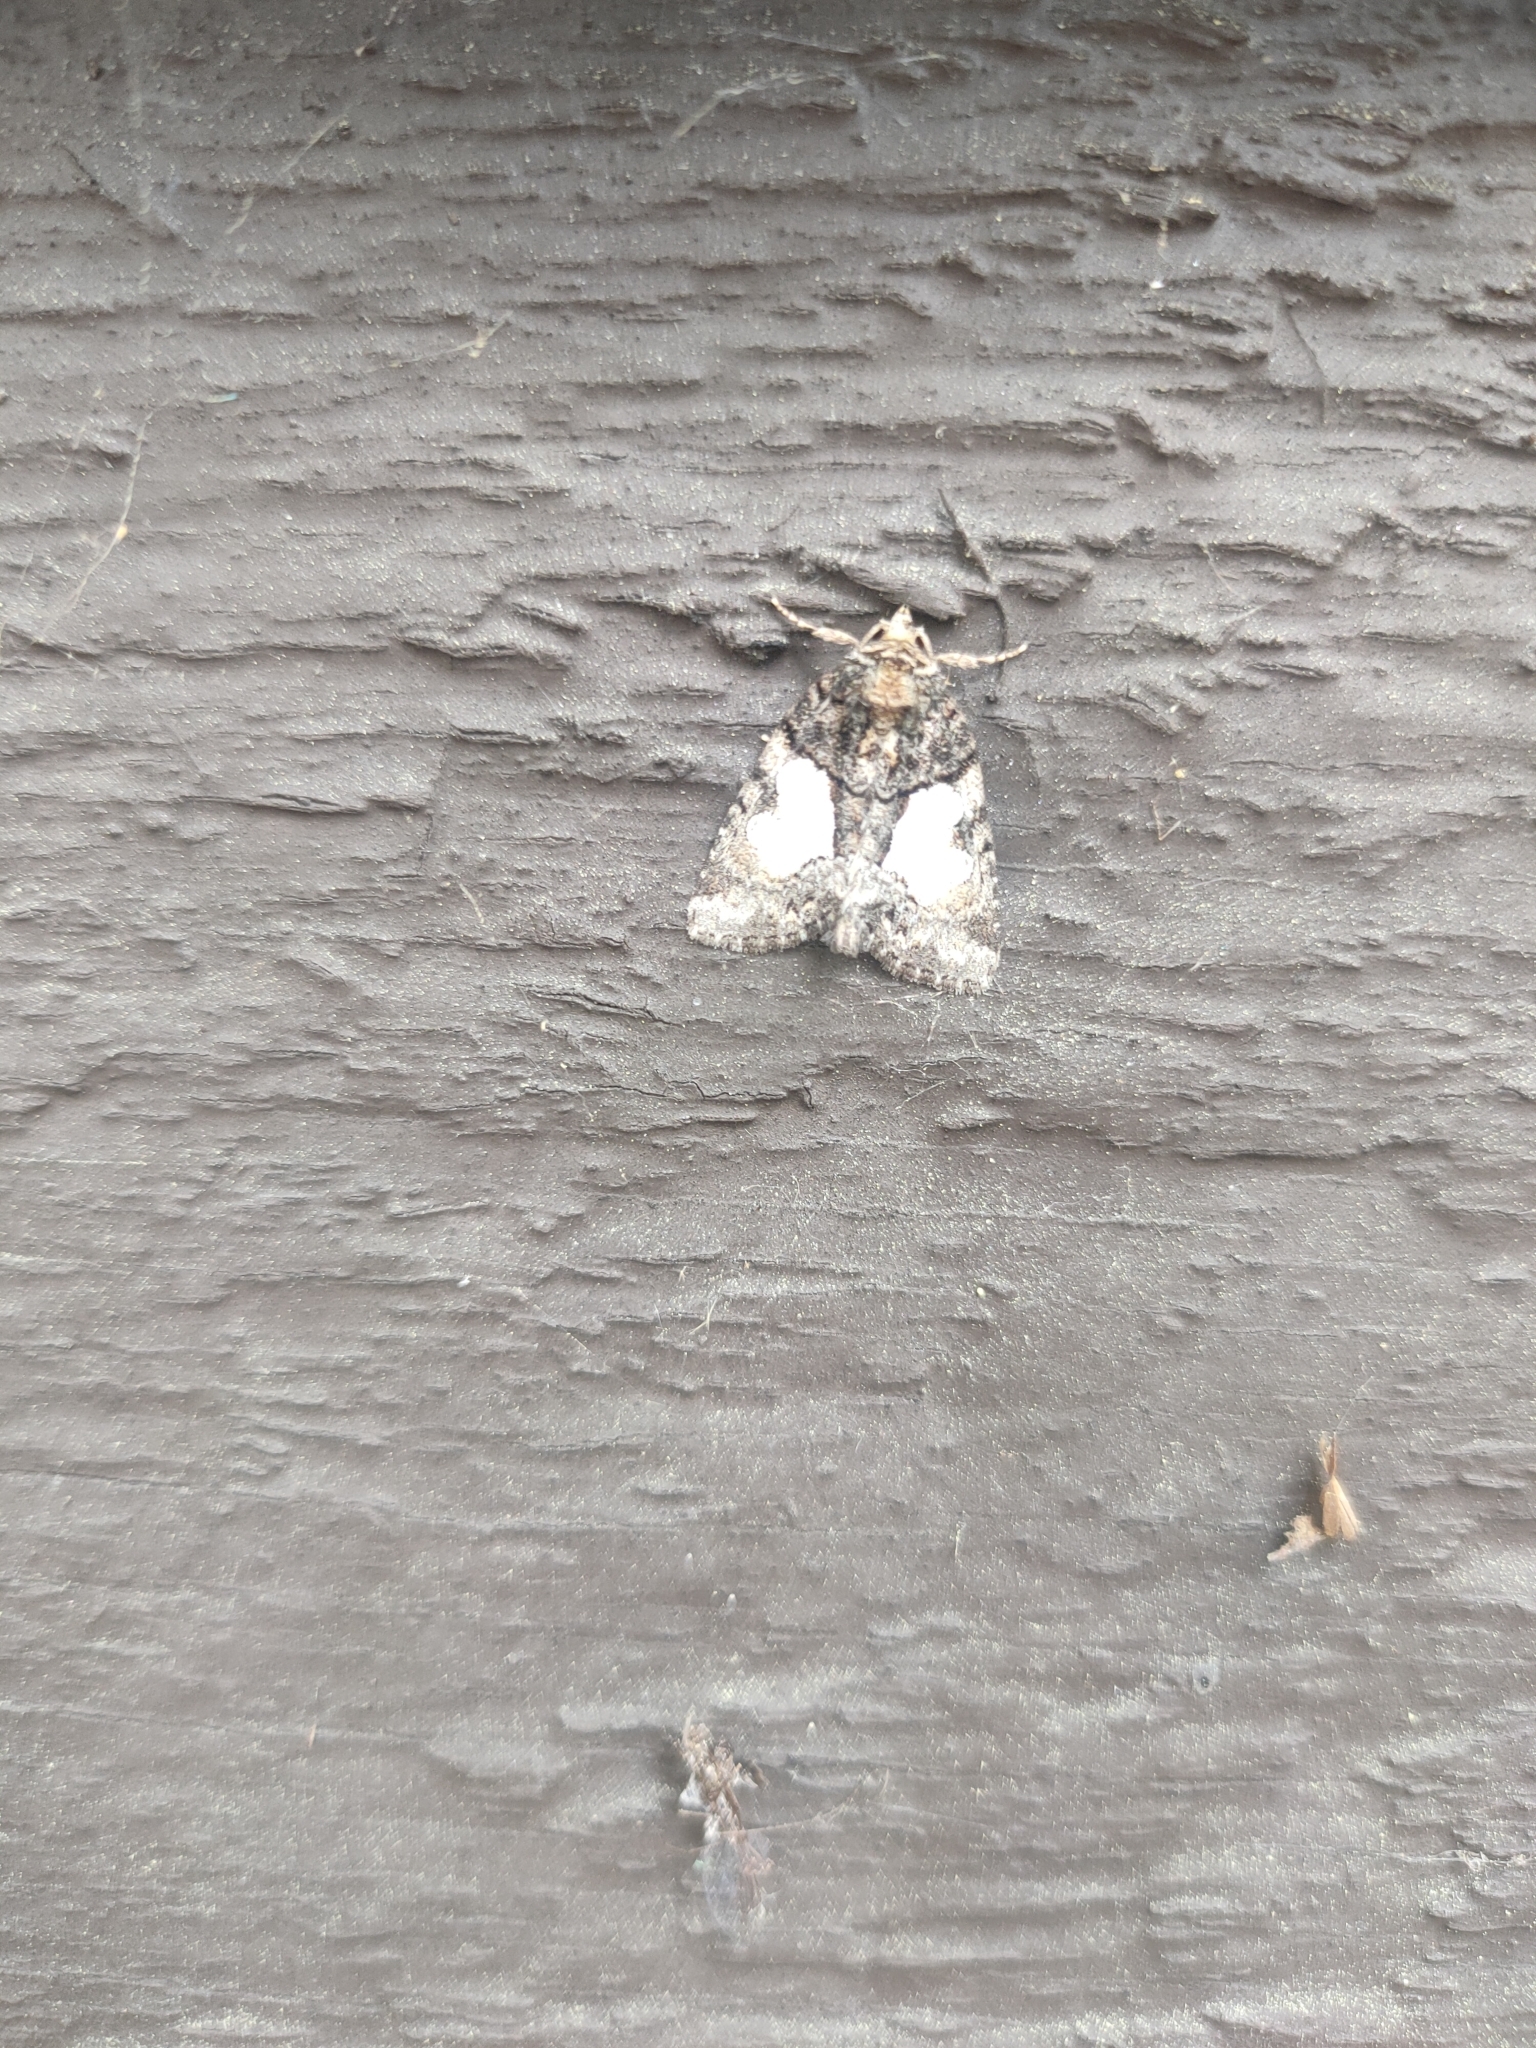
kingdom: Animalia
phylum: Arthropoda
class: Insecta
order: Lepidoptera
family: Noctuidae
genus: Chytonix
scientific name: Chytonix palliatricula
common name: Cloaked marvel
